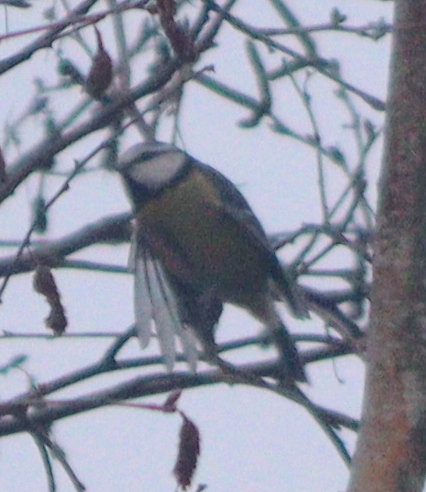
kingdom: Animalia
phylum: Chordata
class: Aves
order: Passeriformes
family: Paridae
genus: Cyanistes
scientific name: Cyanistes caeruleus
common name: Eurasian blue tit
